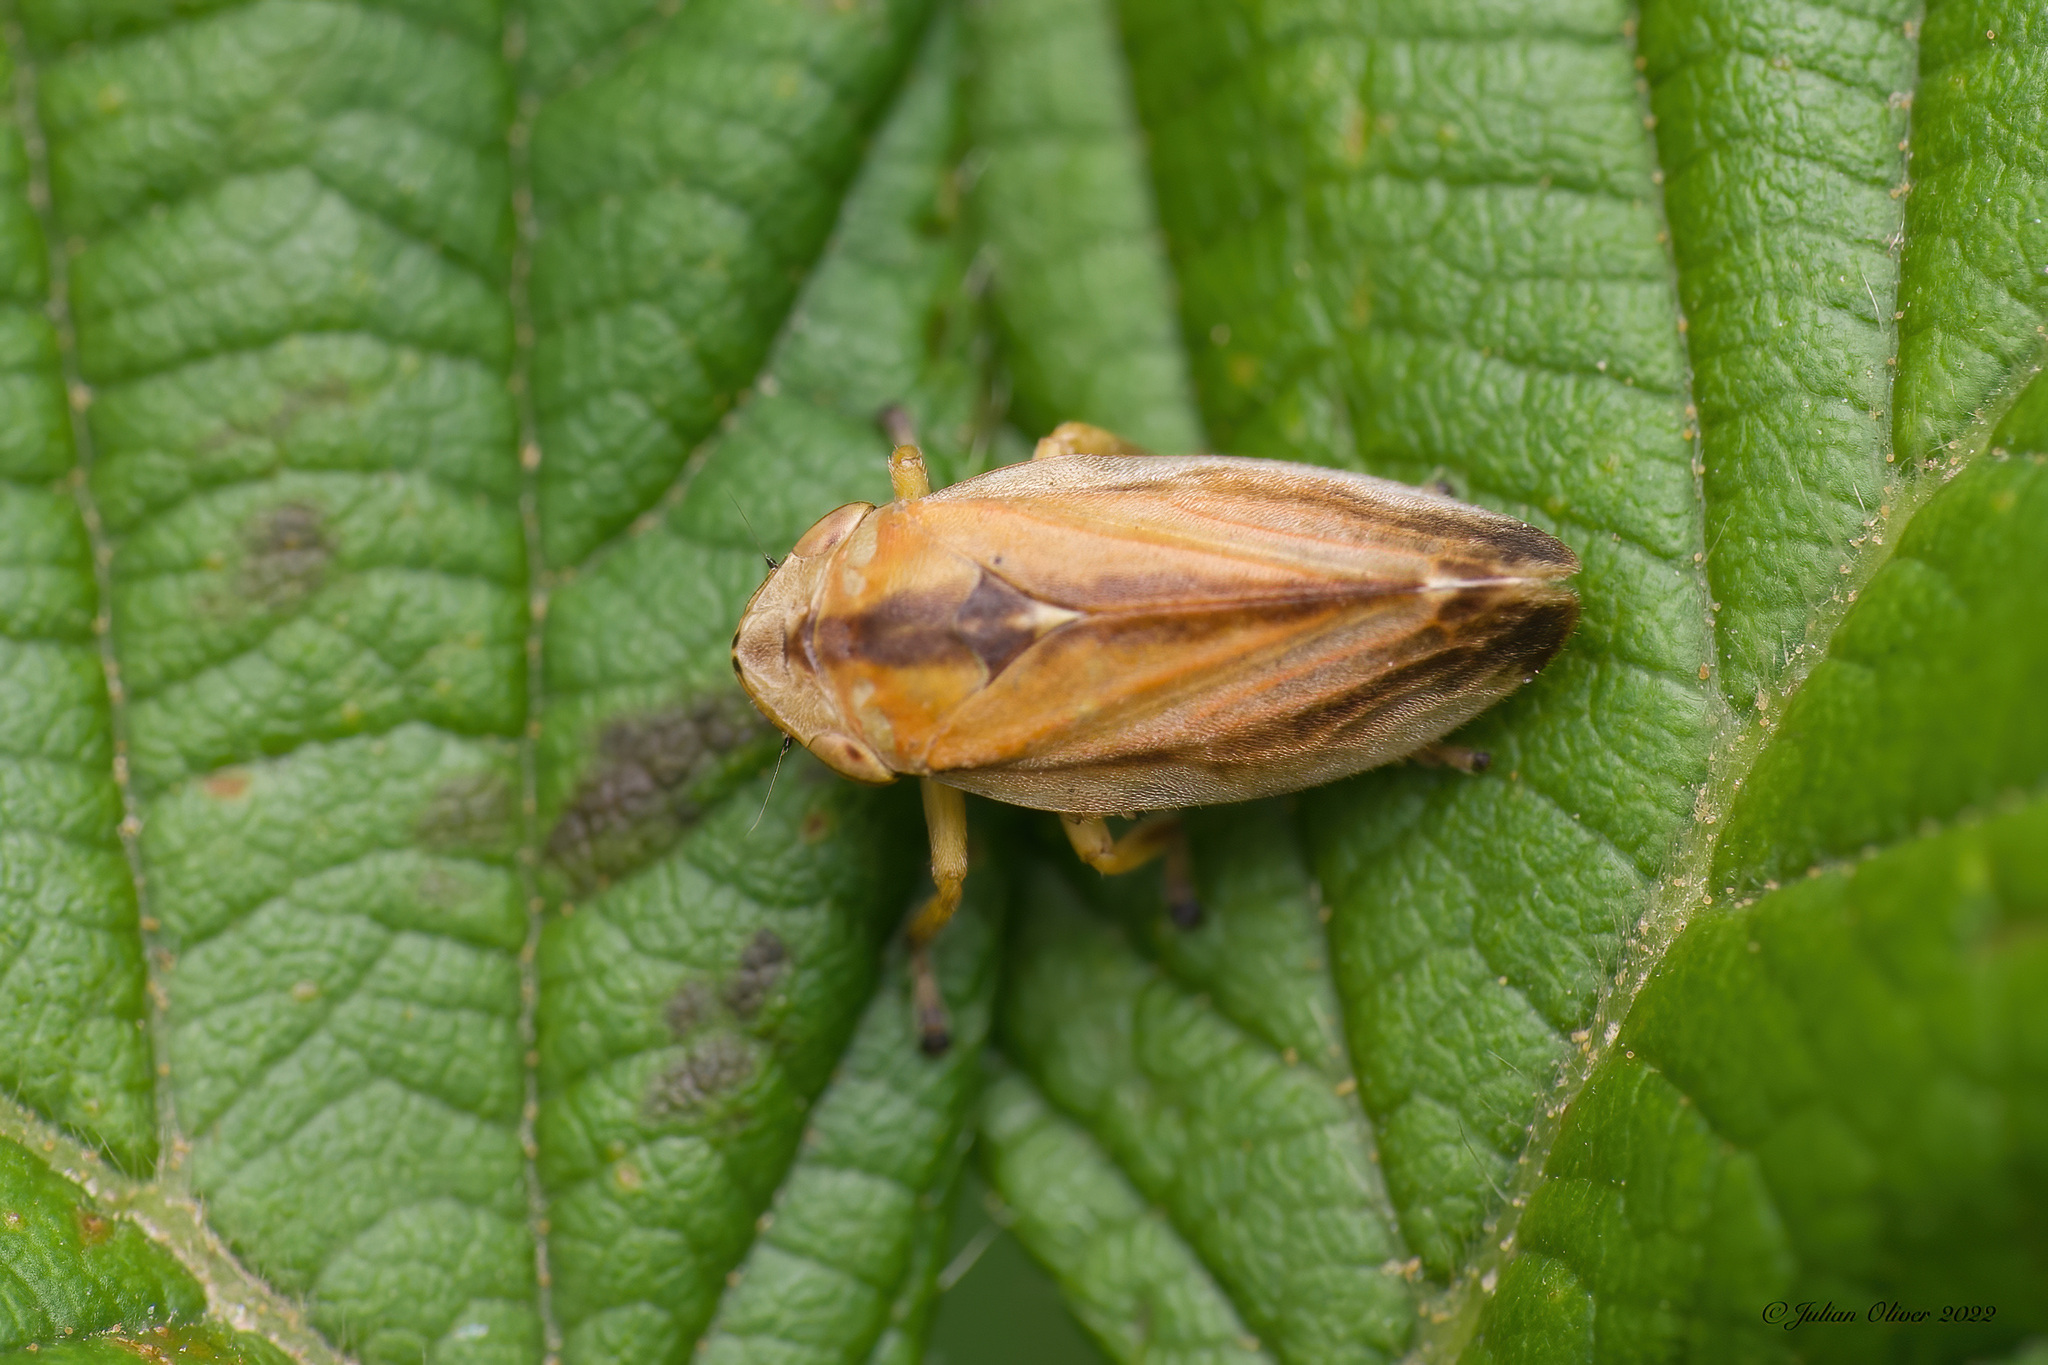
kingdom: Animalia
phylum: Arthropoda
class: Insecta
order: Hemiptera
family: Aphrophoridae
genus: Philaenus
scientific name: Philaenus spumarius
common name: Meadow spittlebug
